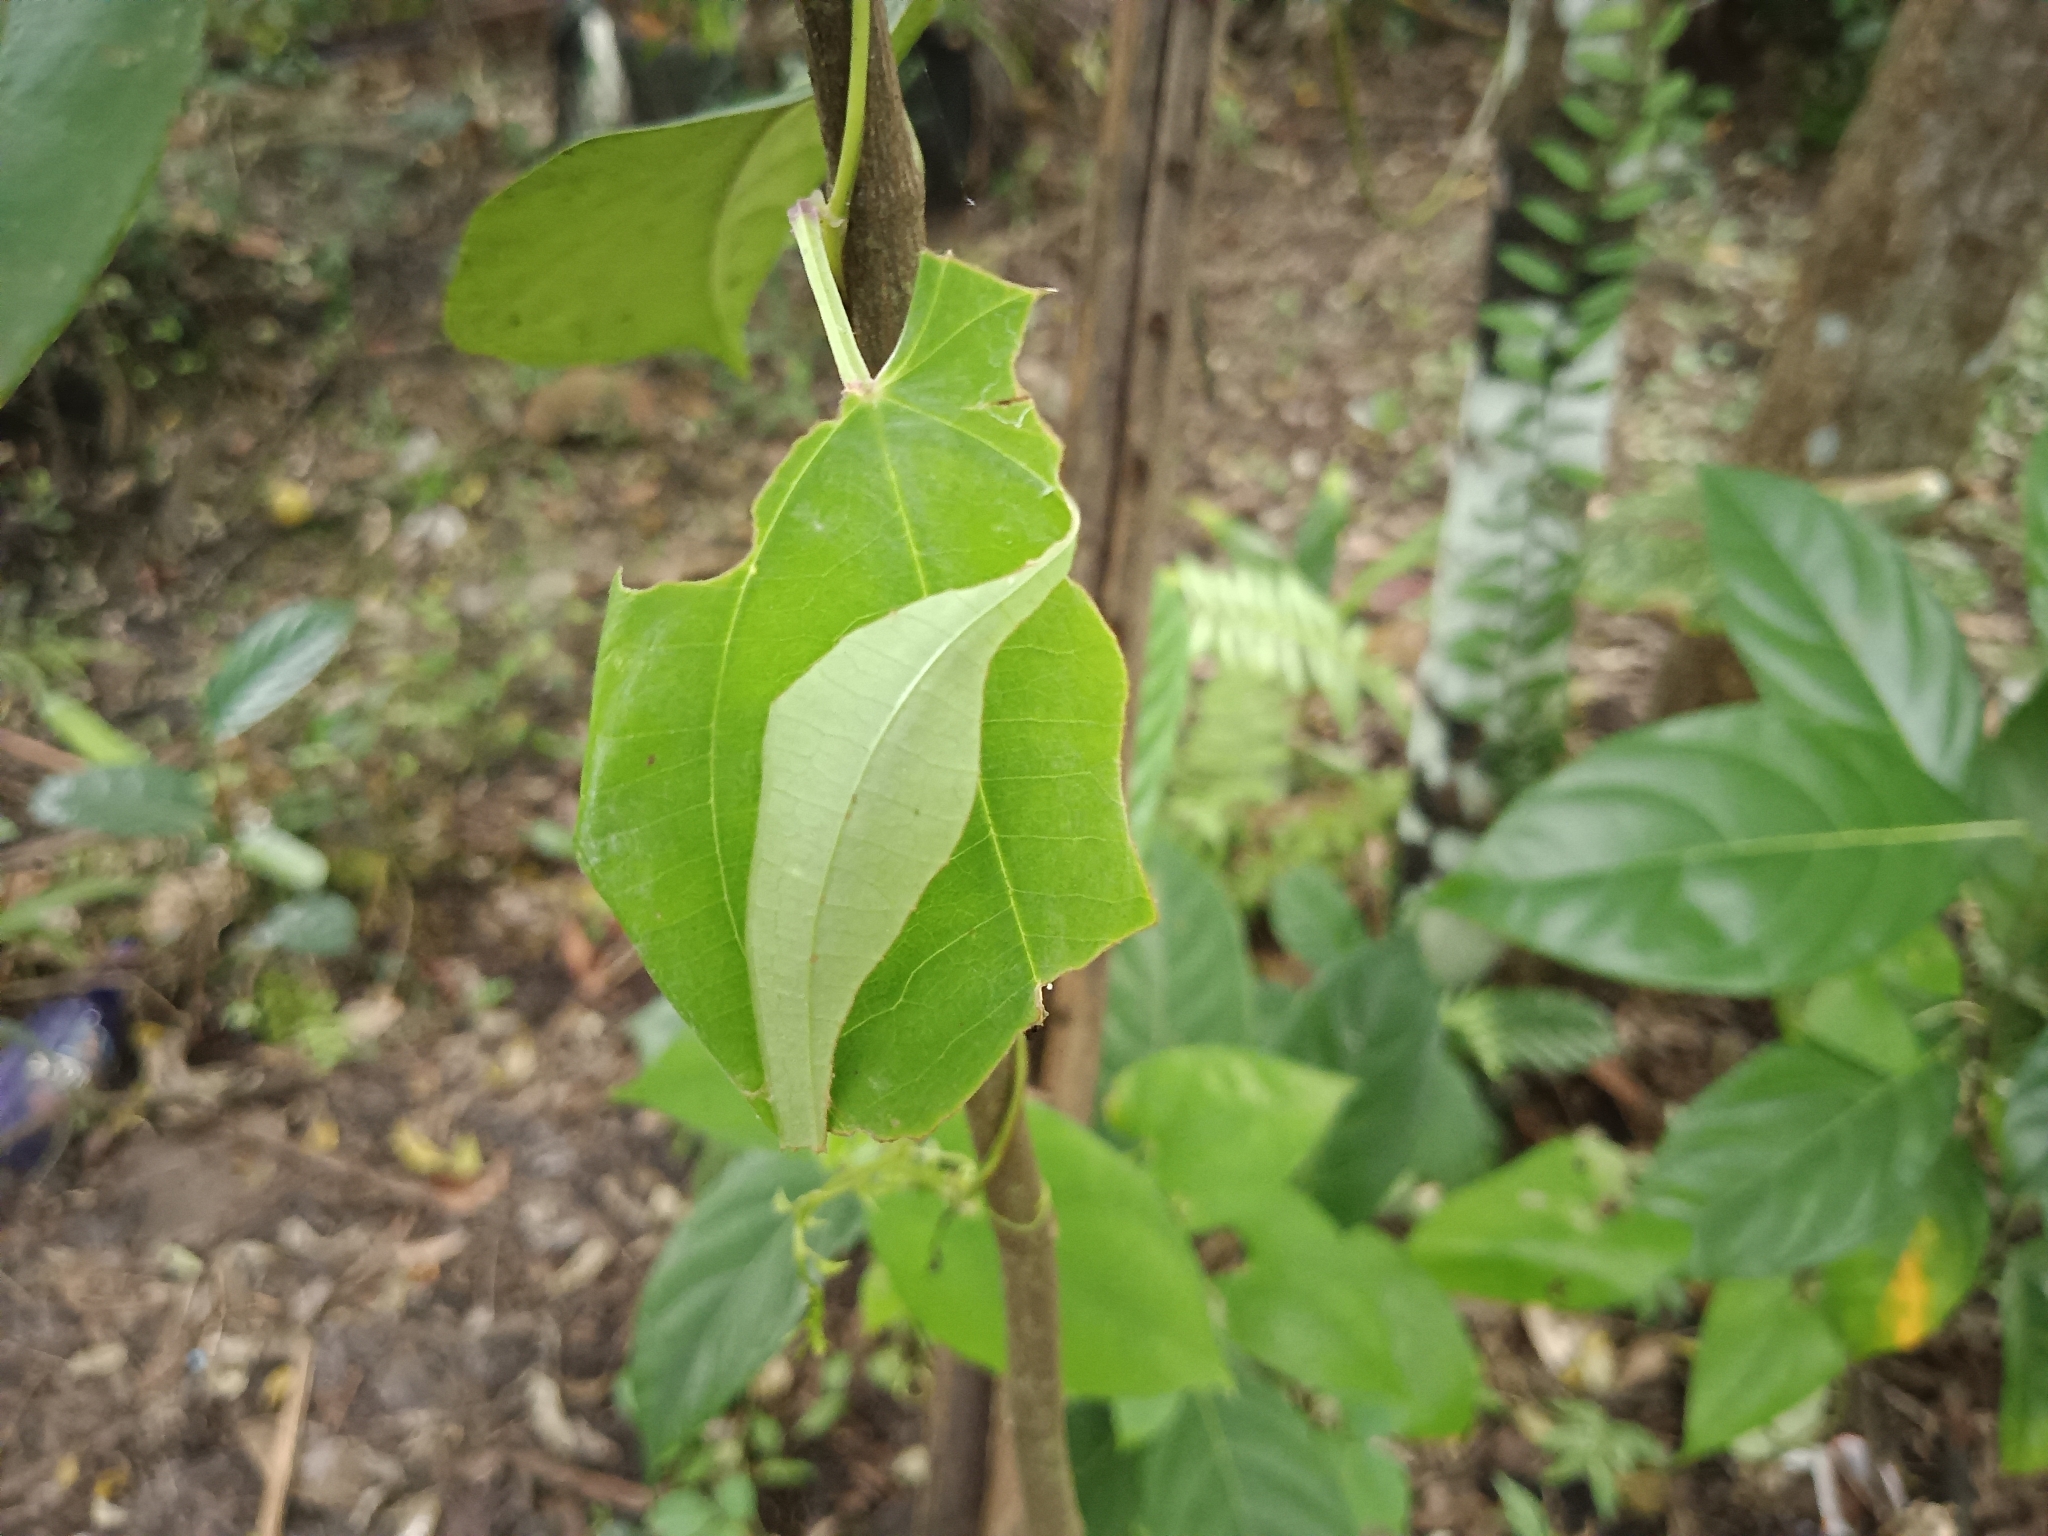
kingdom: Animalia
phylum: Arthropoda
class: Insecta
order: Lepidoptera
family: Hesperiidae
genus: Tagiades
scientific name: Tagiades litigiosa
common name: Water snow flat
